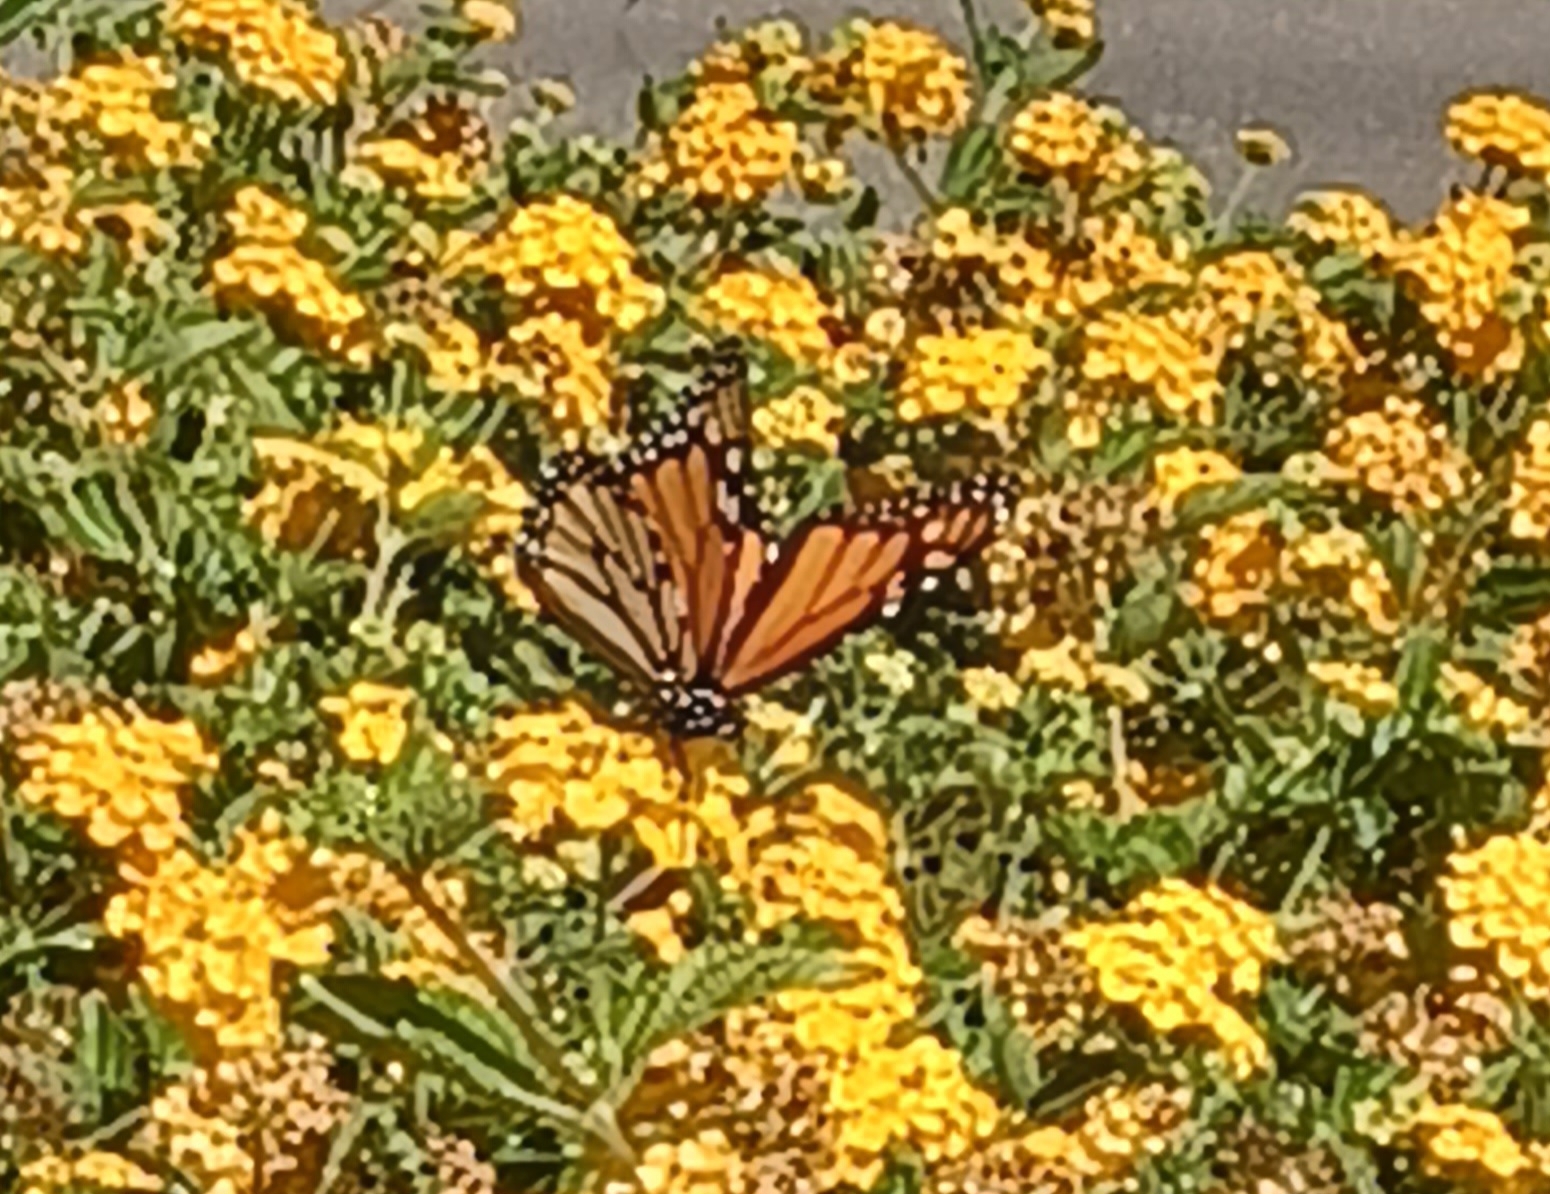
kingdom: Animalia
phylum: Arthropoda
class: Insecta
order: Lepidoptera
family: Nymphalidae
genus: Danaus
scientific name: Danaus plexippus
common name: Monarch
